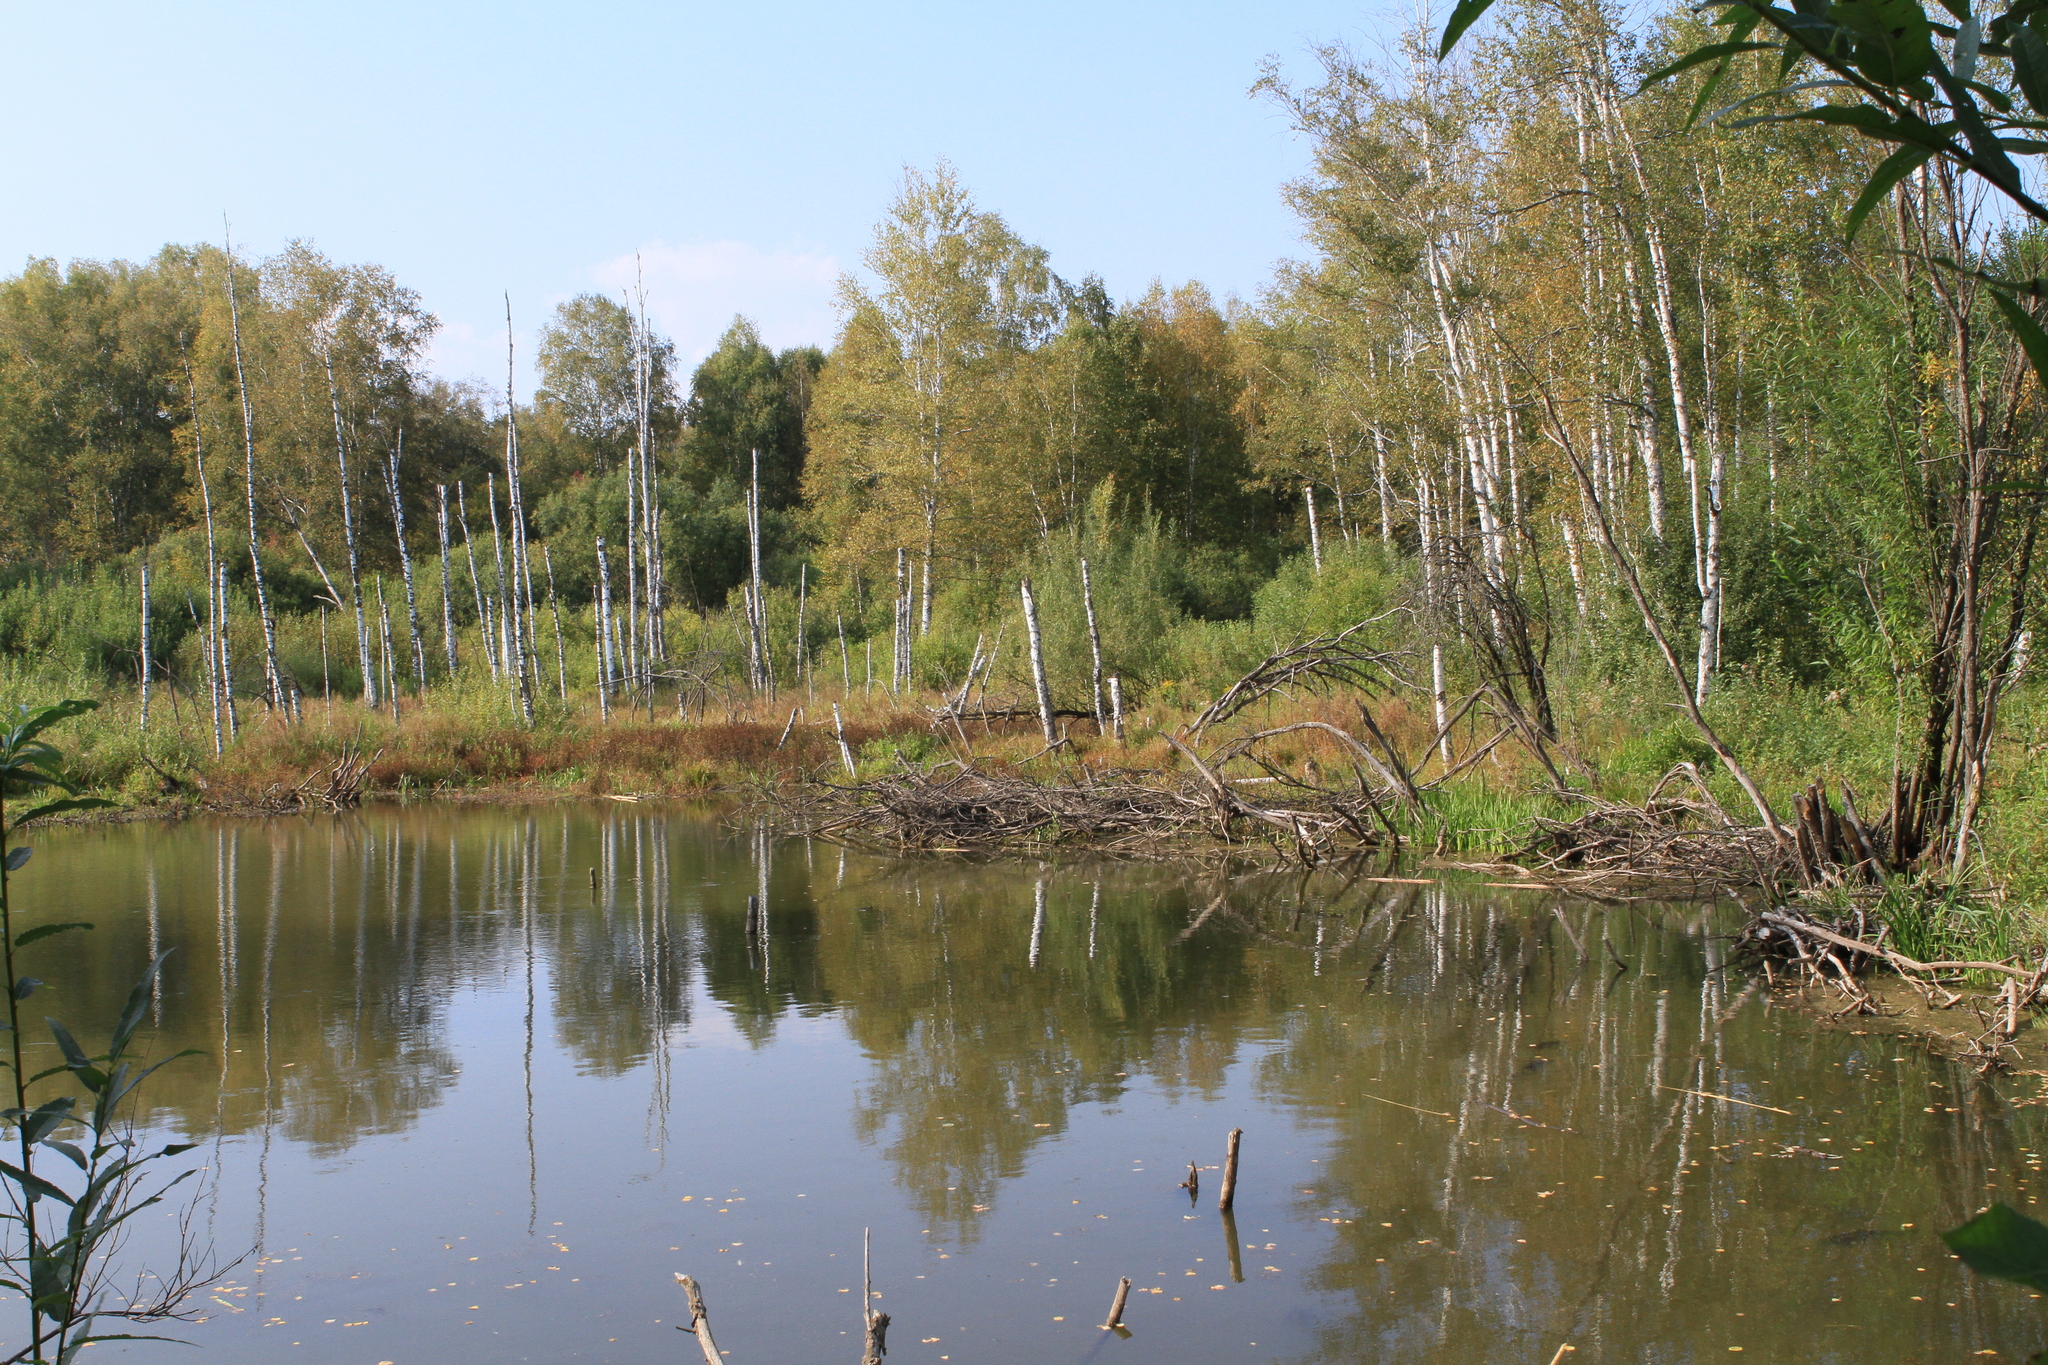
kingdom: Plantae
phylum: Tracheophyta
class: Magnoliopsida
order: Fagales
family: Betulaceae
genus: Betula
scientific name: Betula pendula
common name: Silver birch
